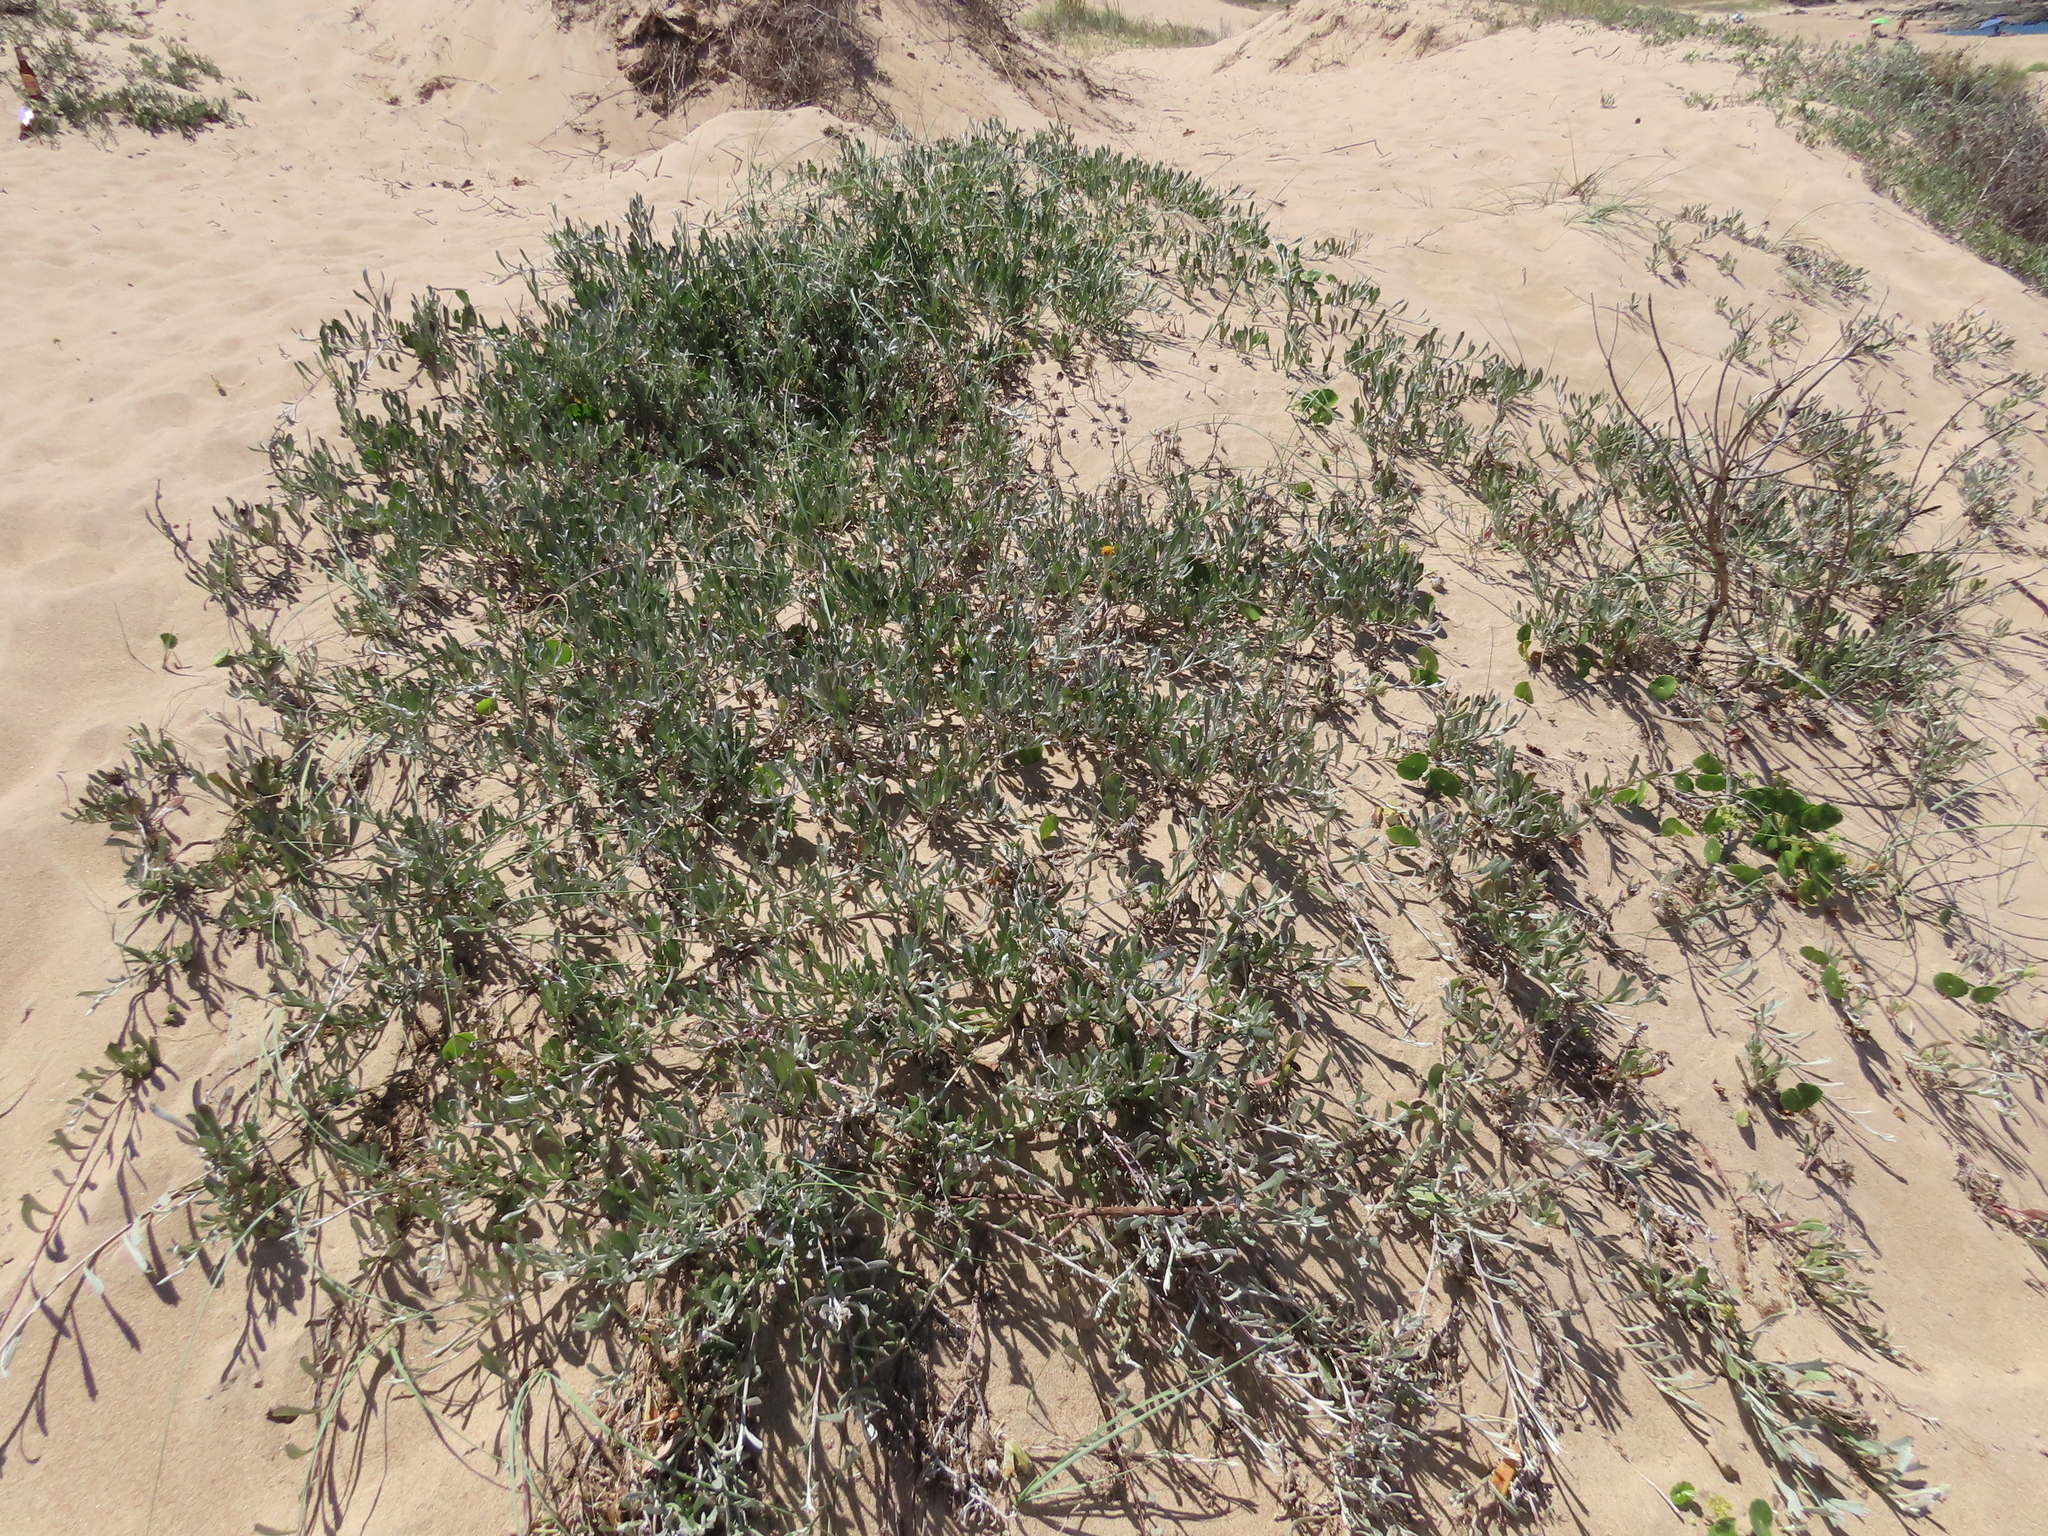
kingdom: Plantae
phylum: Tracheophyta
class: Magnoliopsida
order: Asterales
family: Asteraceae
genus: Senecio
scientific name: Senecio crassiflorus
